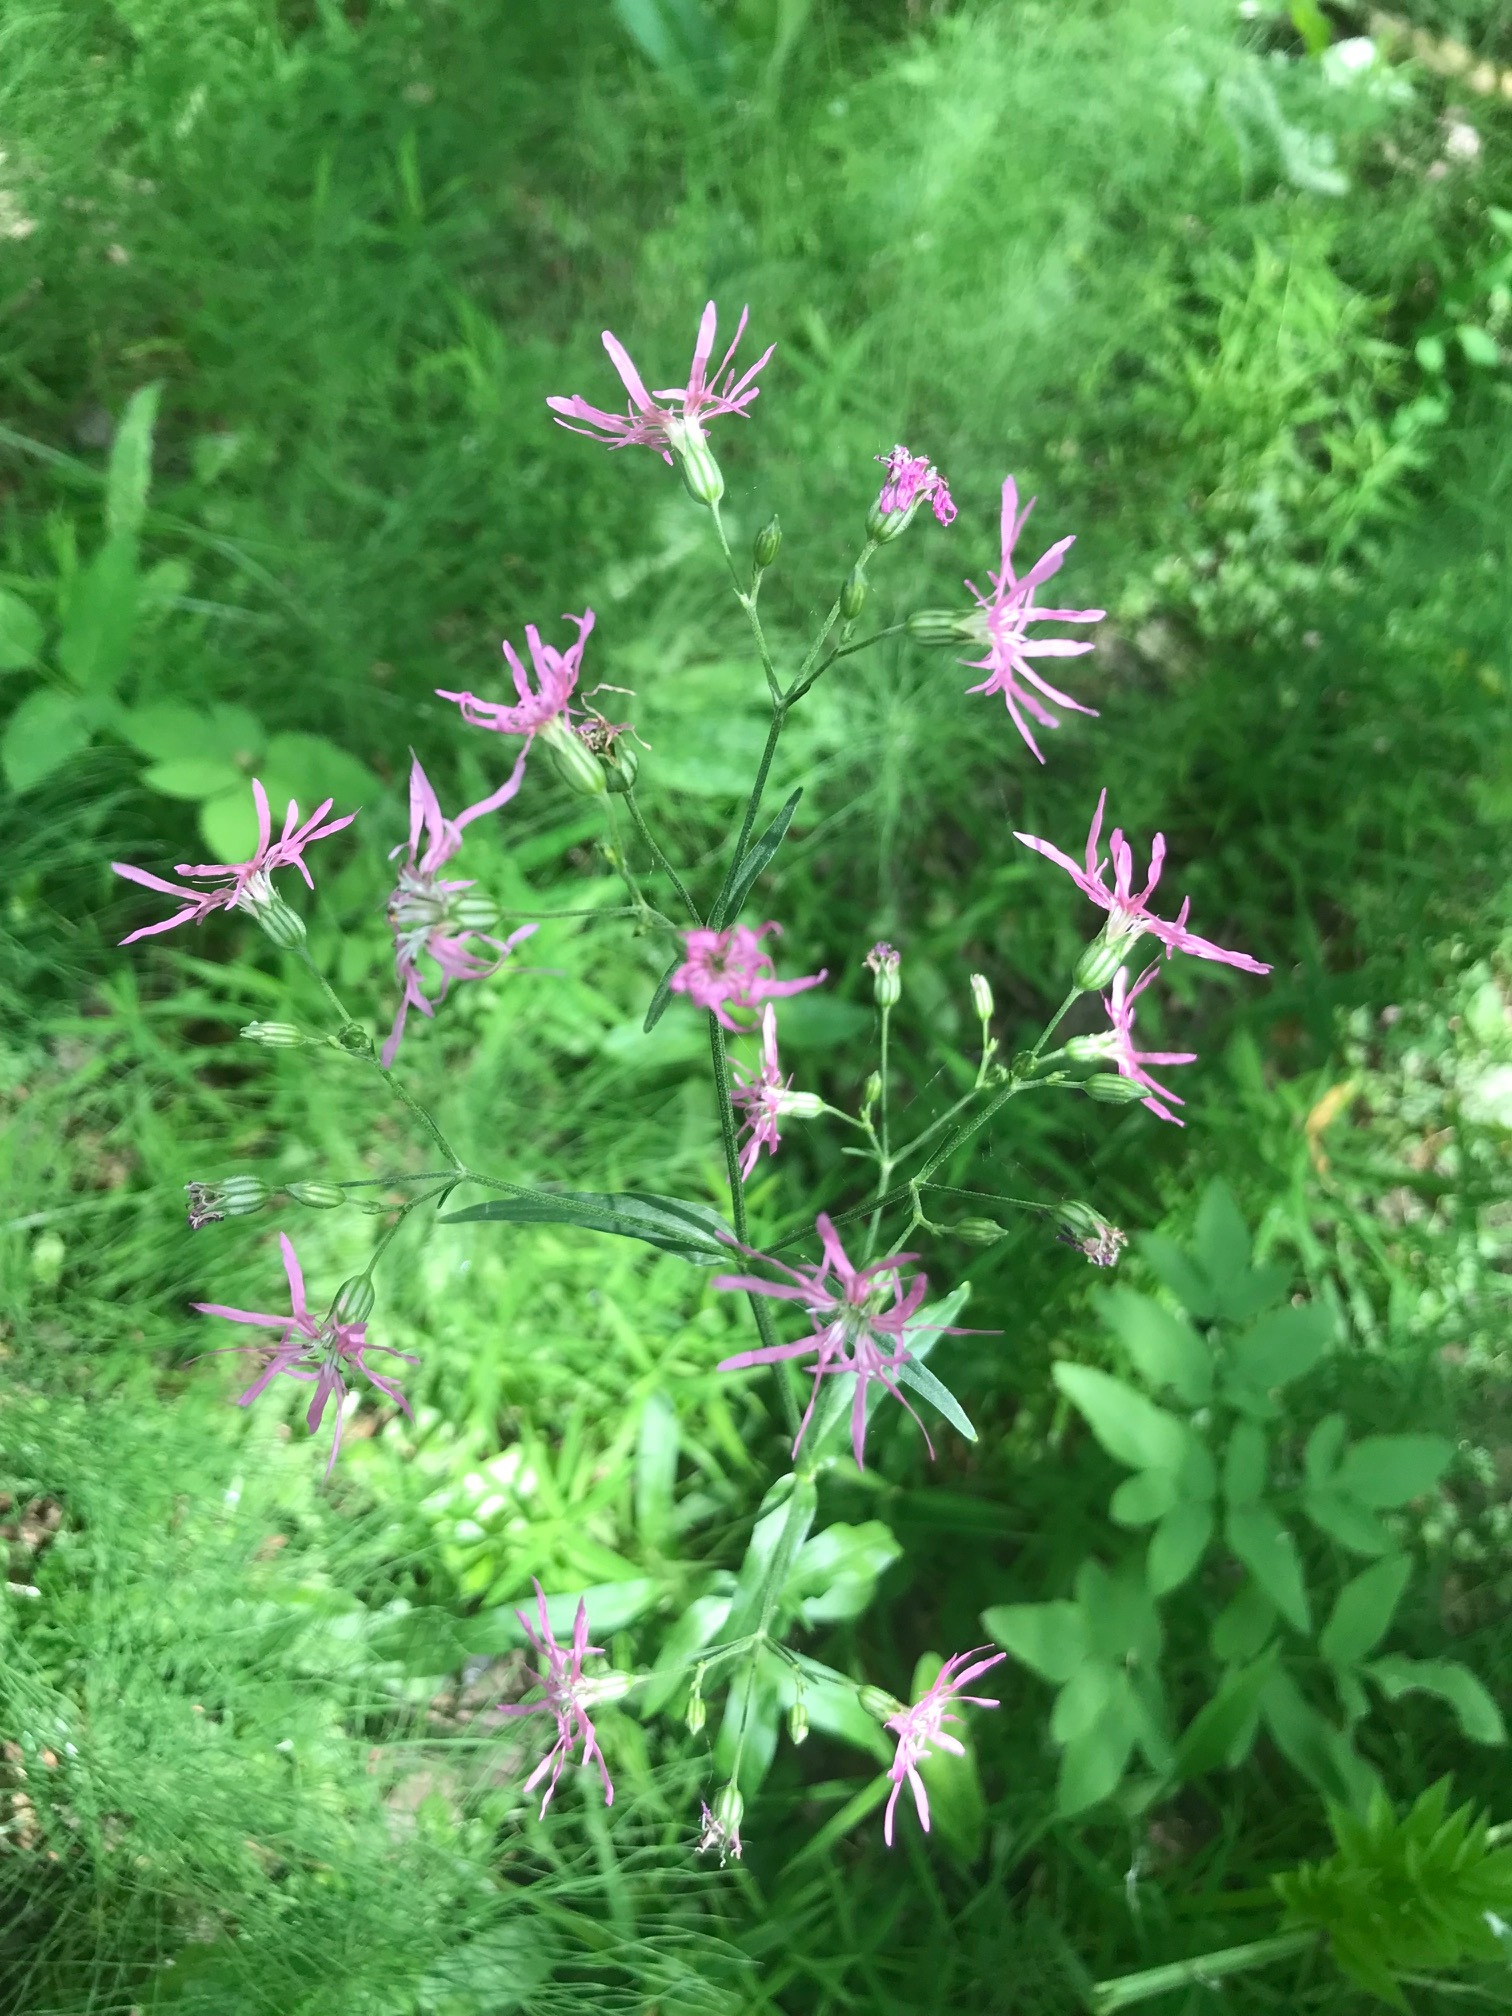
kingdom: Plantae
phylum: Tracheophyta
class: Magnoliopsida
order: Caryophyllales
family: Caryophyllaceae
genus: Silene
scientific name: Silene flos-cuculi
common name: Ragged-robin
